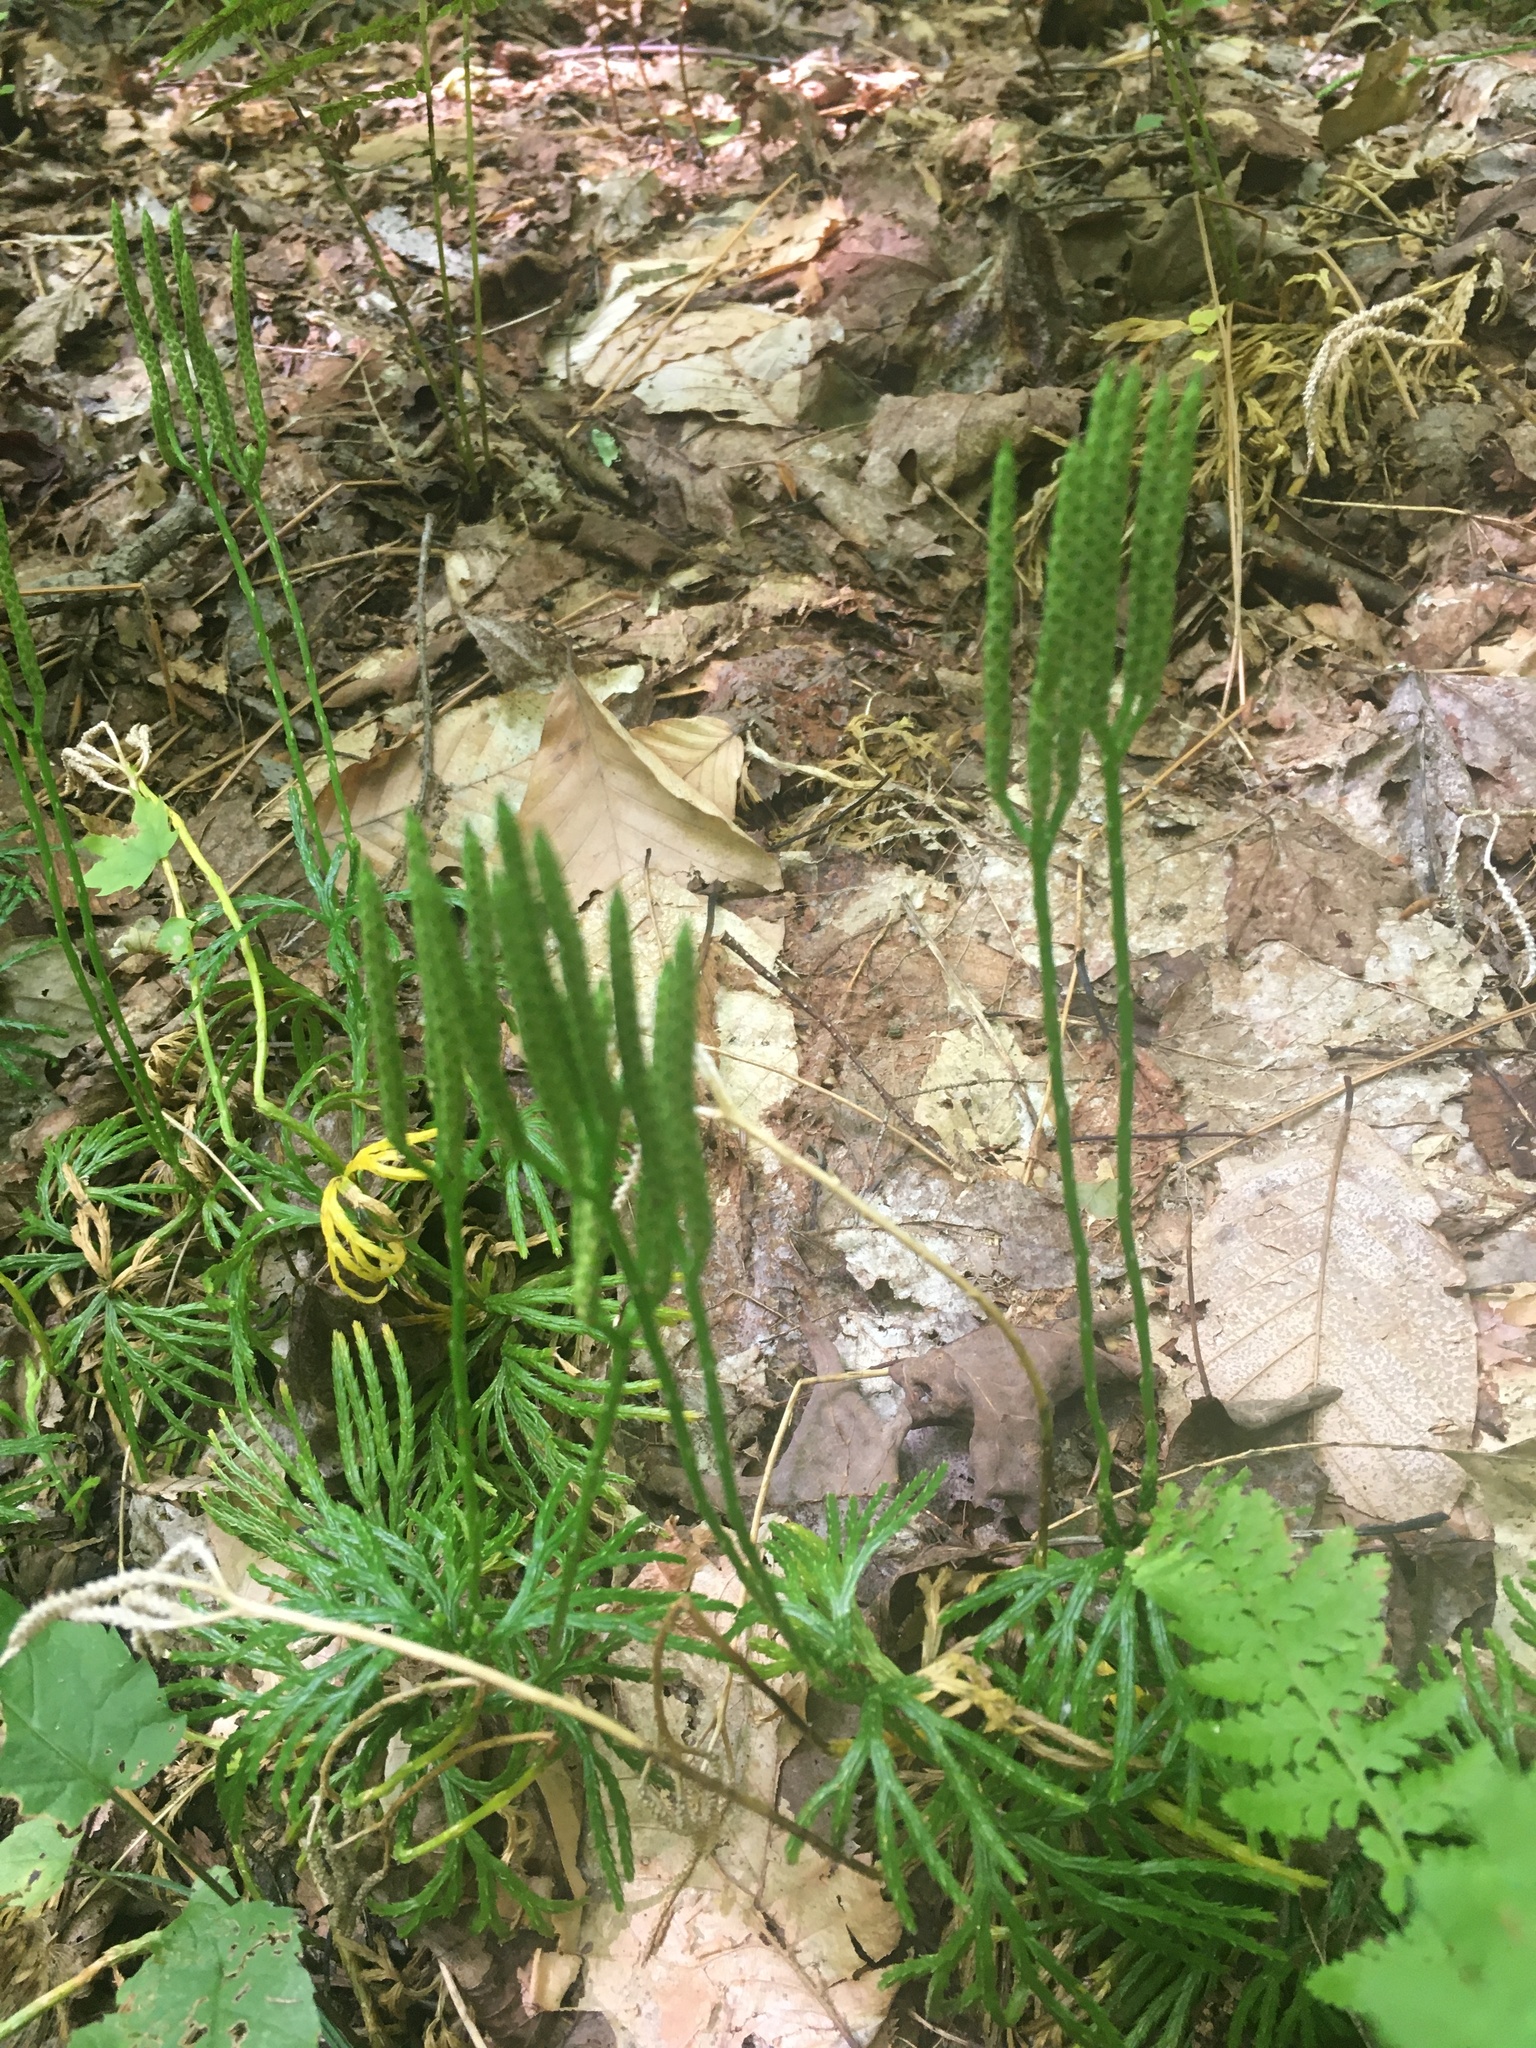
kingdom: Plantae
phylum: Tracheophyta
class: Lycopodiopsida
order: Lycopodiales
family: Lycopodiaceae
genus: Diphasiastrum
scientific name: Diphasiastrum digitatum
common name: Southern running-pine
